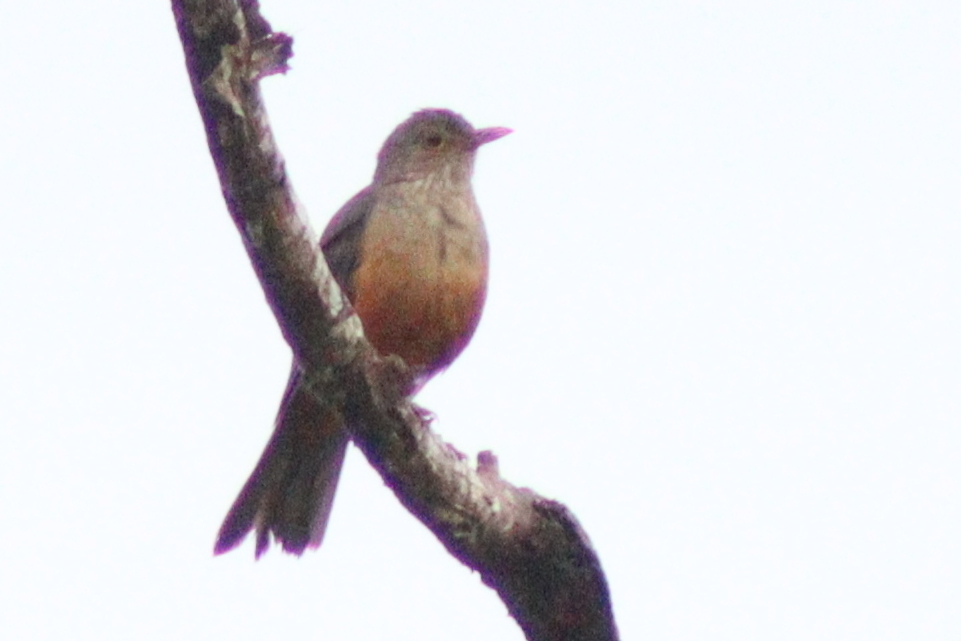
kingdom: Animalia
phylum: Chordata
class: Aves
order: Passeriformes
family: Turdidae
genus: Turdus
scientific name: Turdus rufiventris
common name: Rufous-bellied thrush
